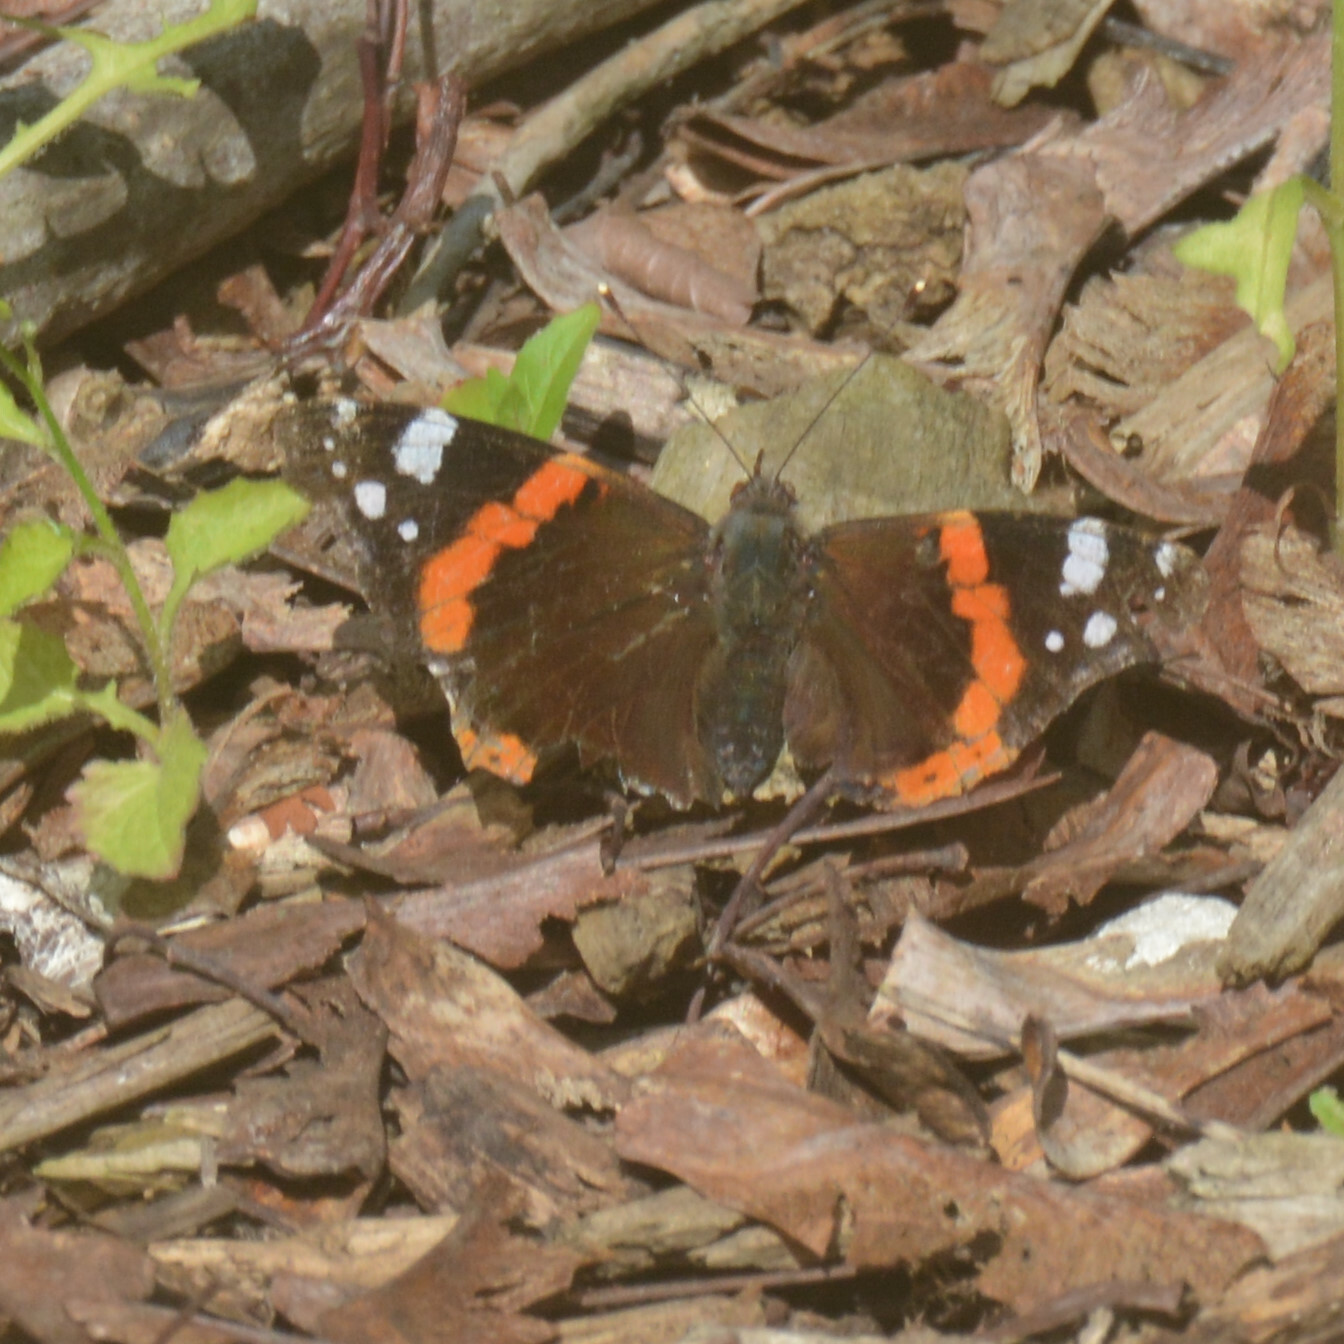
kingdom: Animalia
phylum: Arthropoda
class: Insecta
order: Lepidoptera
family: Nymphalidae
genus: Vanessa
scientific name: Vanessa atalanta
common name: Red admiral
